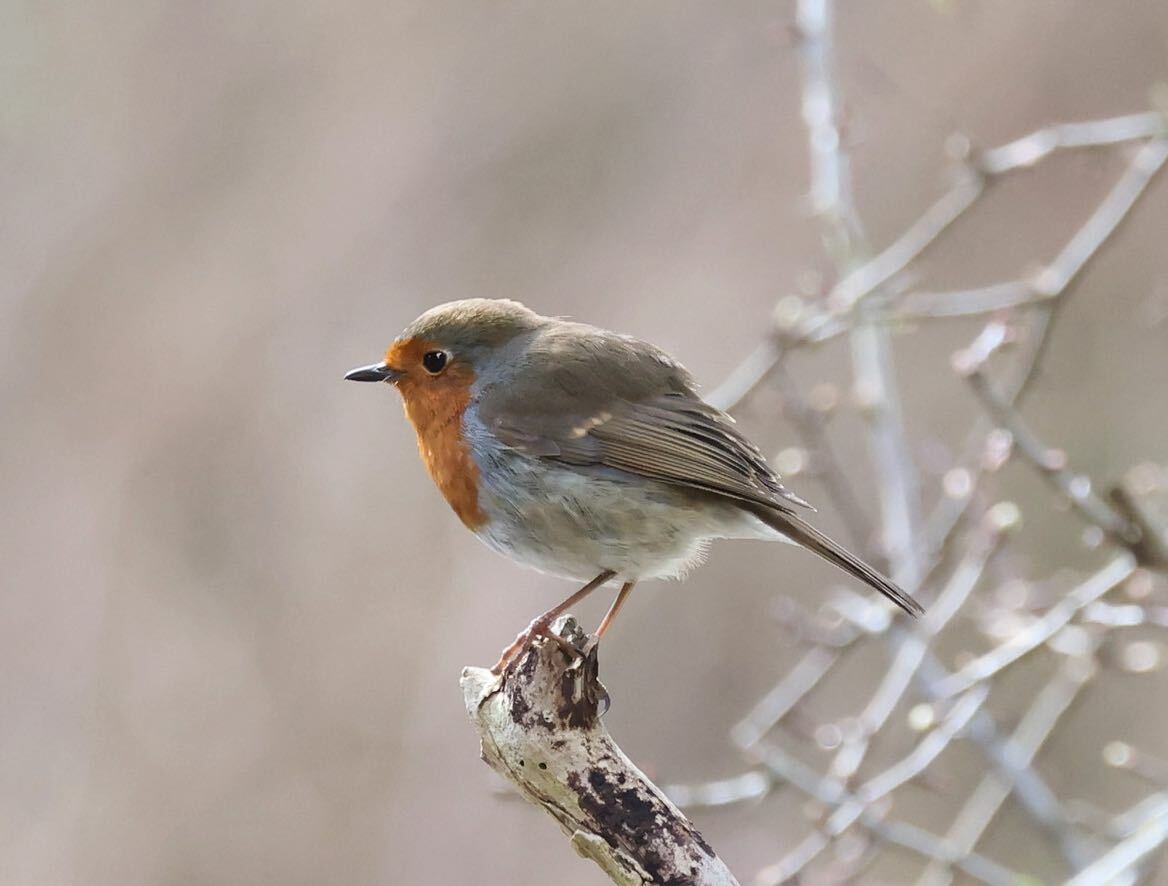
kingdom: Animalia
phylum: Chordata
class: Aves
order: Passeriformes
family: Muscicapidae
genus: Erithacus
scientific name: Erithacus rubecula
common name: European robin
